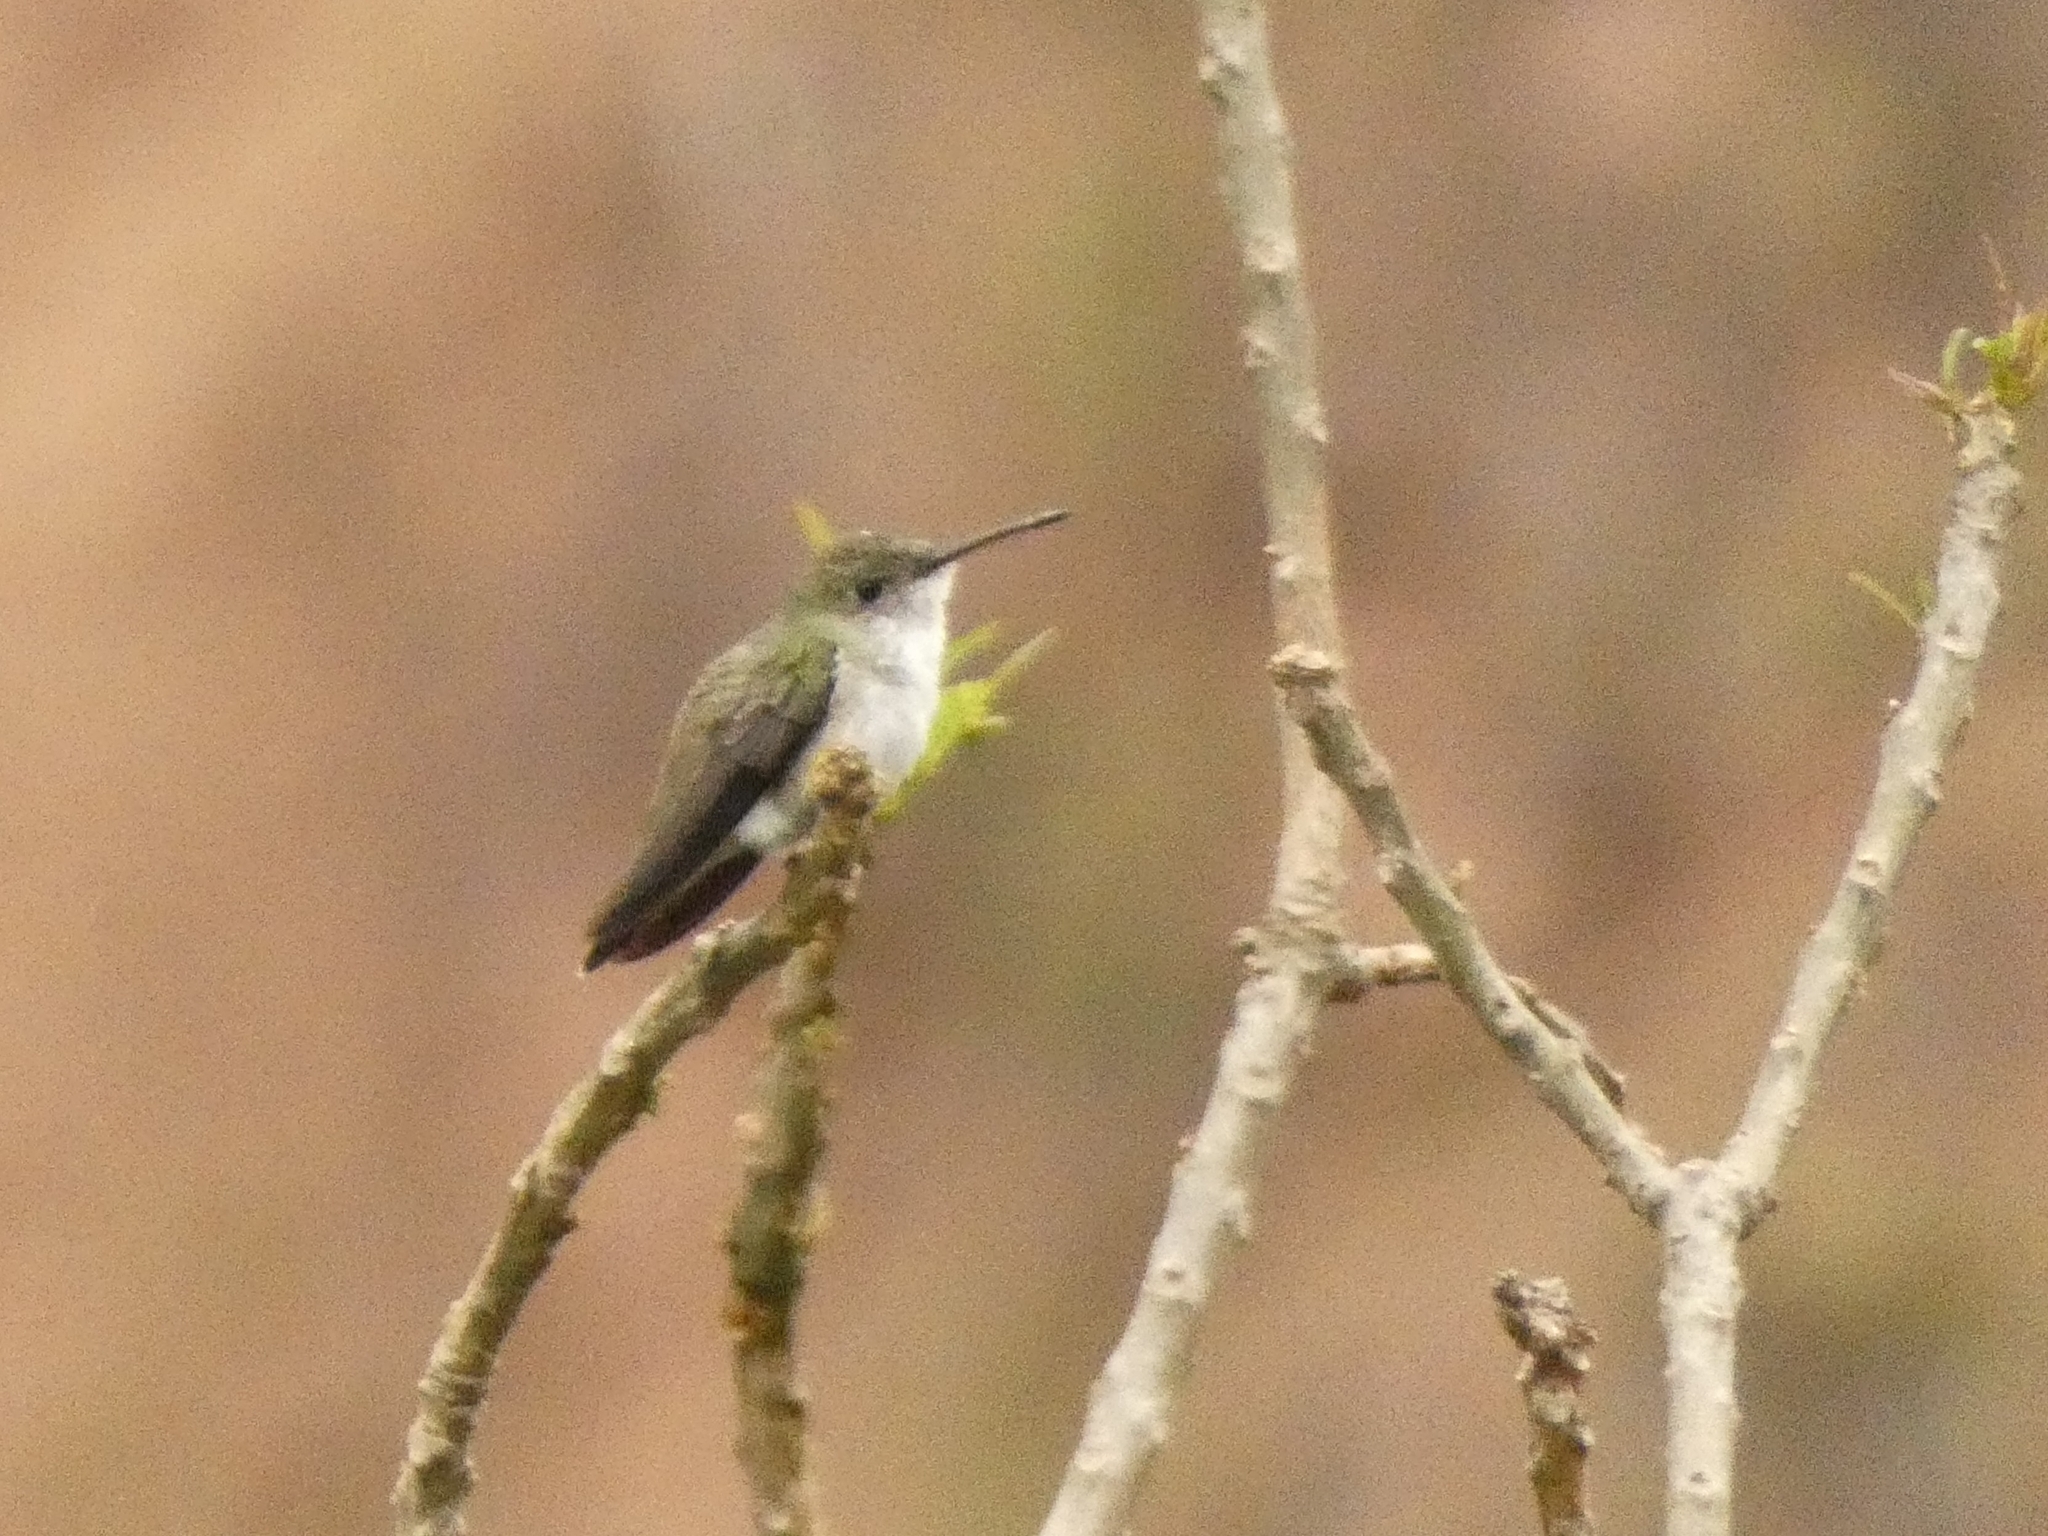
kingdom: Animalia
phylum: Chordata
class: Aves
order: Apodiformes
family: Trochilidae
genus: Elliotomyia
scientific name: Elliotomyia chionogaster
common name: White-bellied hummingbird
